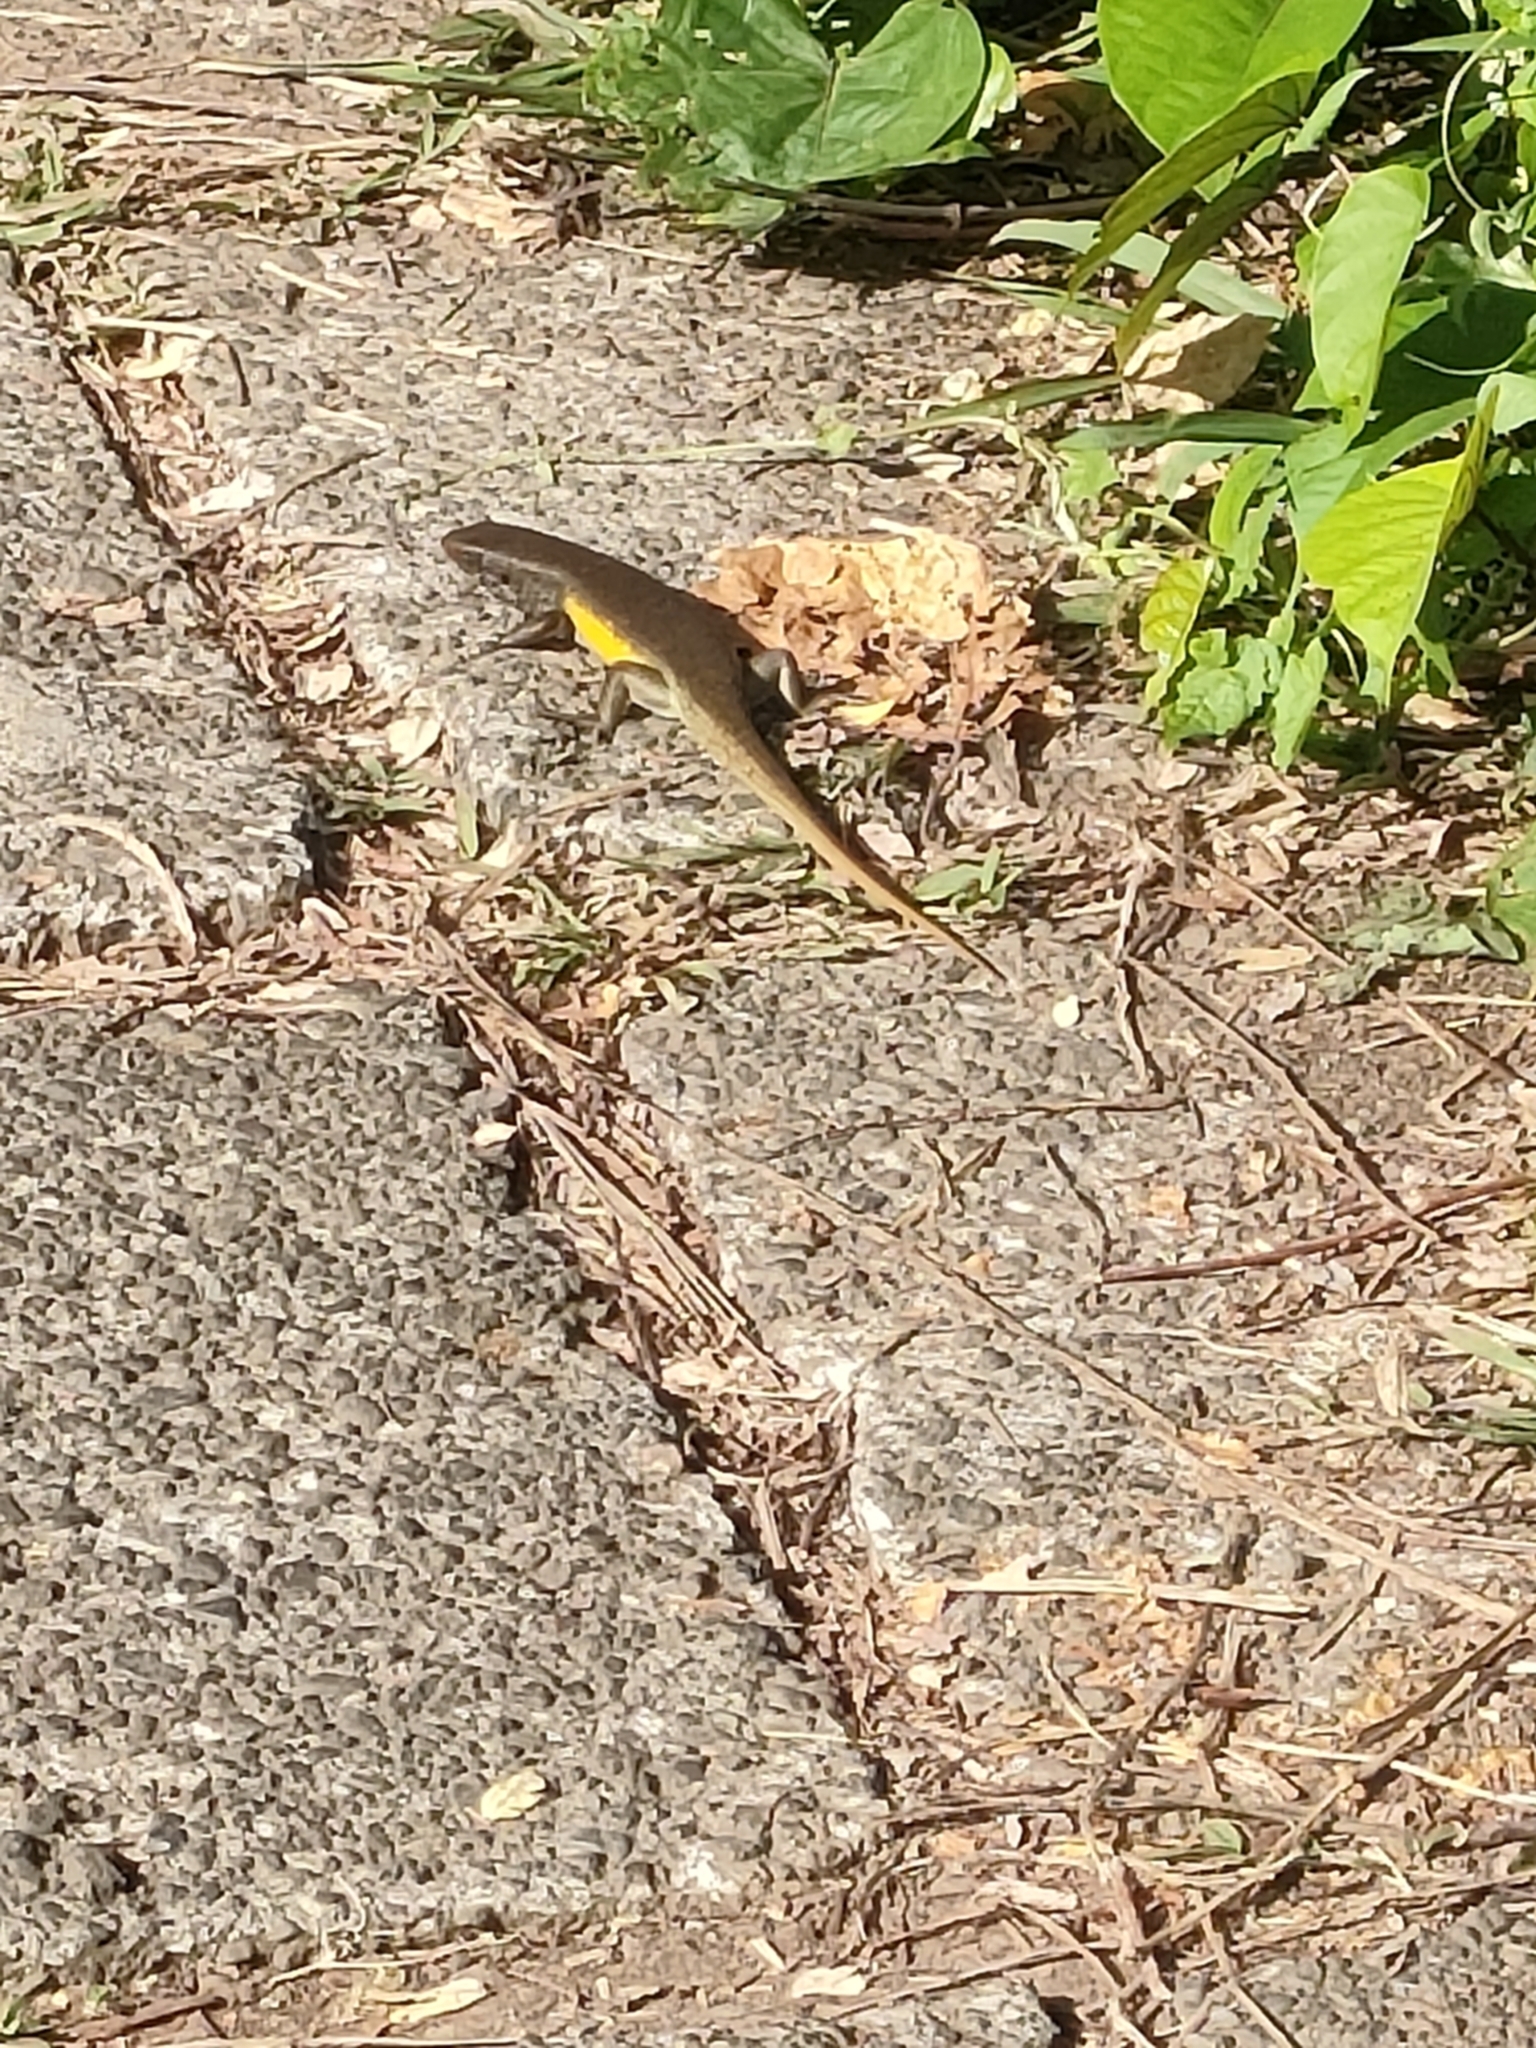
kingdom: Animalia
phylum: Chordata
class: Squamata
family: Scincidae
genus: Eutropis
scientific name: Eutropis multifasciata
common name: Common mabuya
